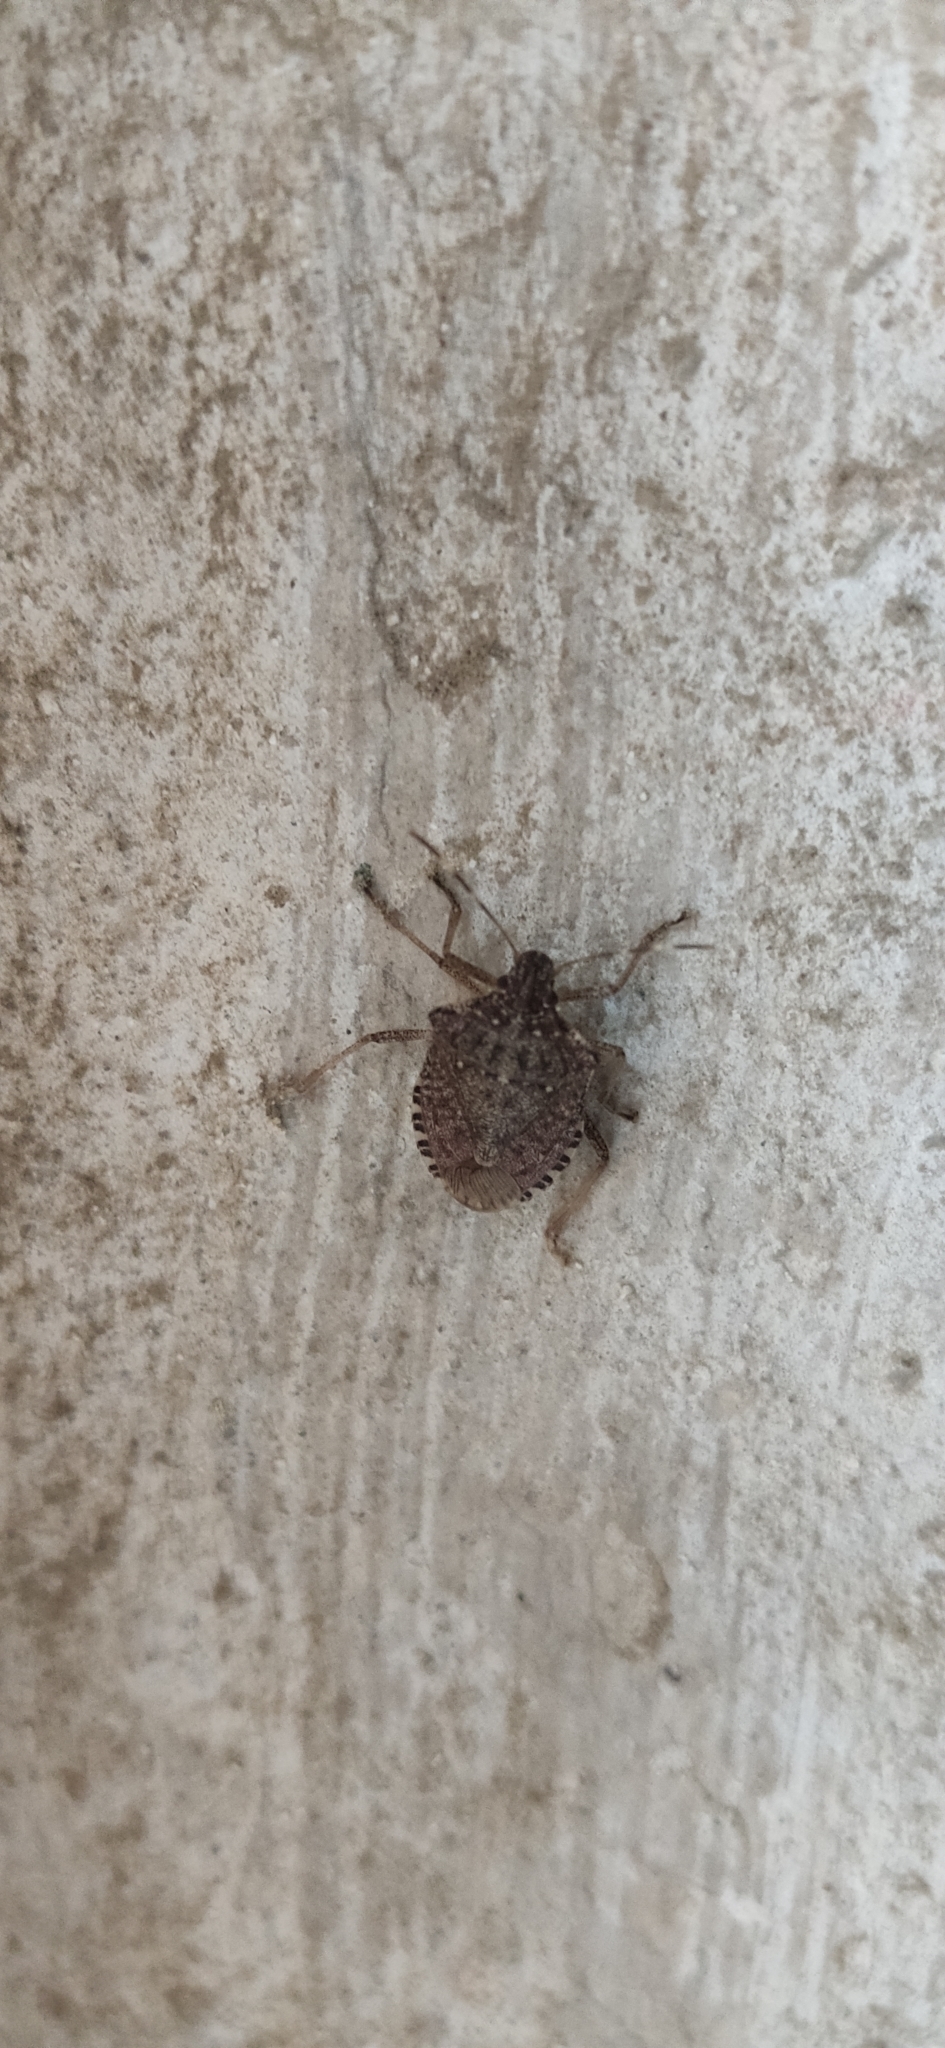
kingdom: Animalia
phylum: Arthropoda
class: Insecta
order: Hemiptera
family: Pentatomidae
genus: Halyomorpha
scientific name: Halyomorpha halys
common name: Brown marmorated stink bug
